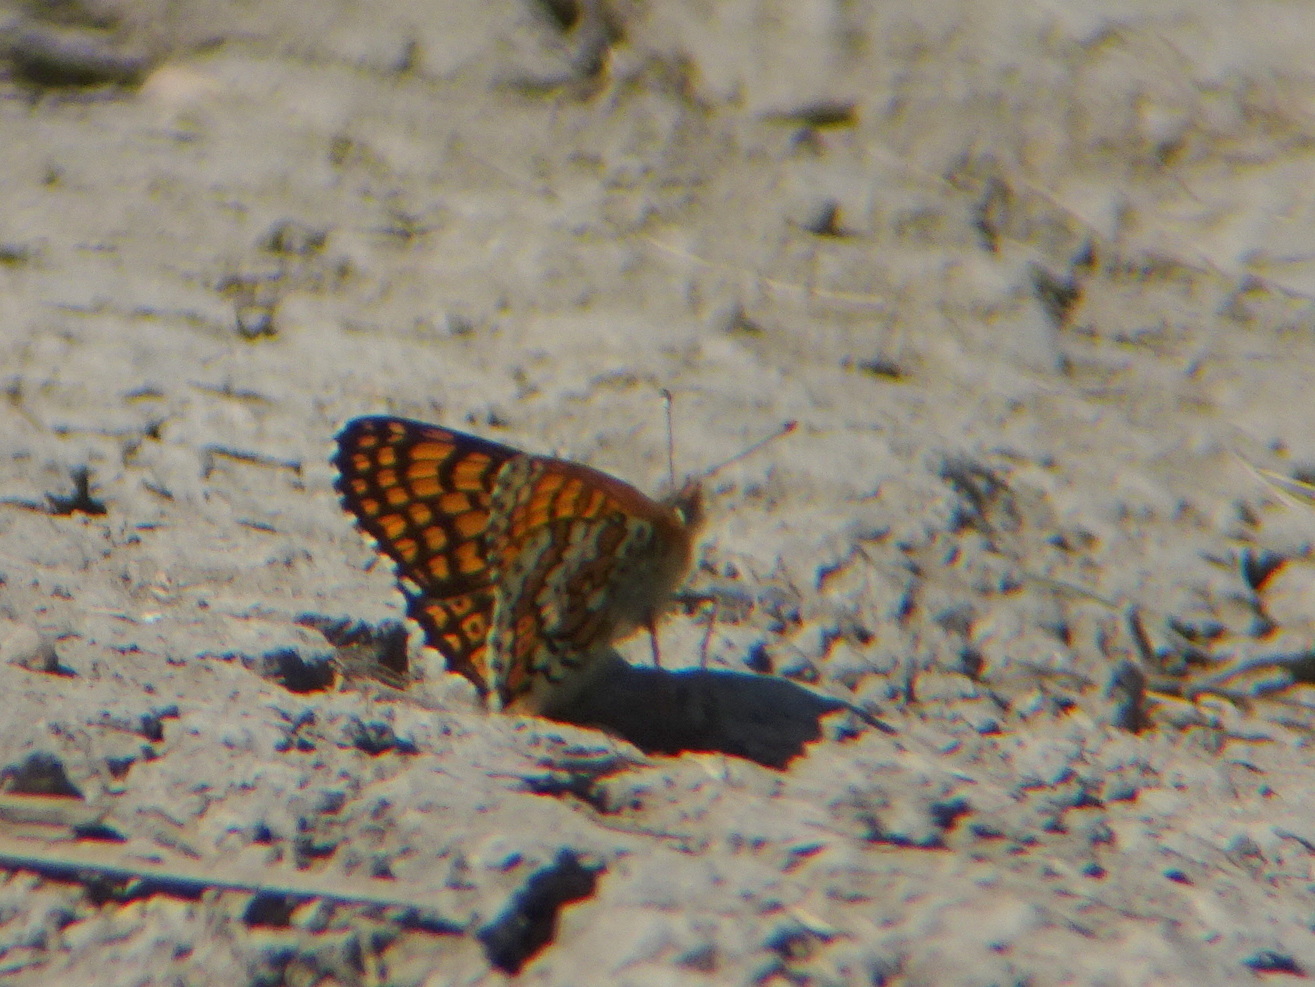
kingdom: Animalia
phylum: Arthropoda
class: Insecta
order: Lepidoptera
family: Nymphalidae
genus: Melitaea
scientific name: Melitaea cinxia
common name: Glanville fritillary
